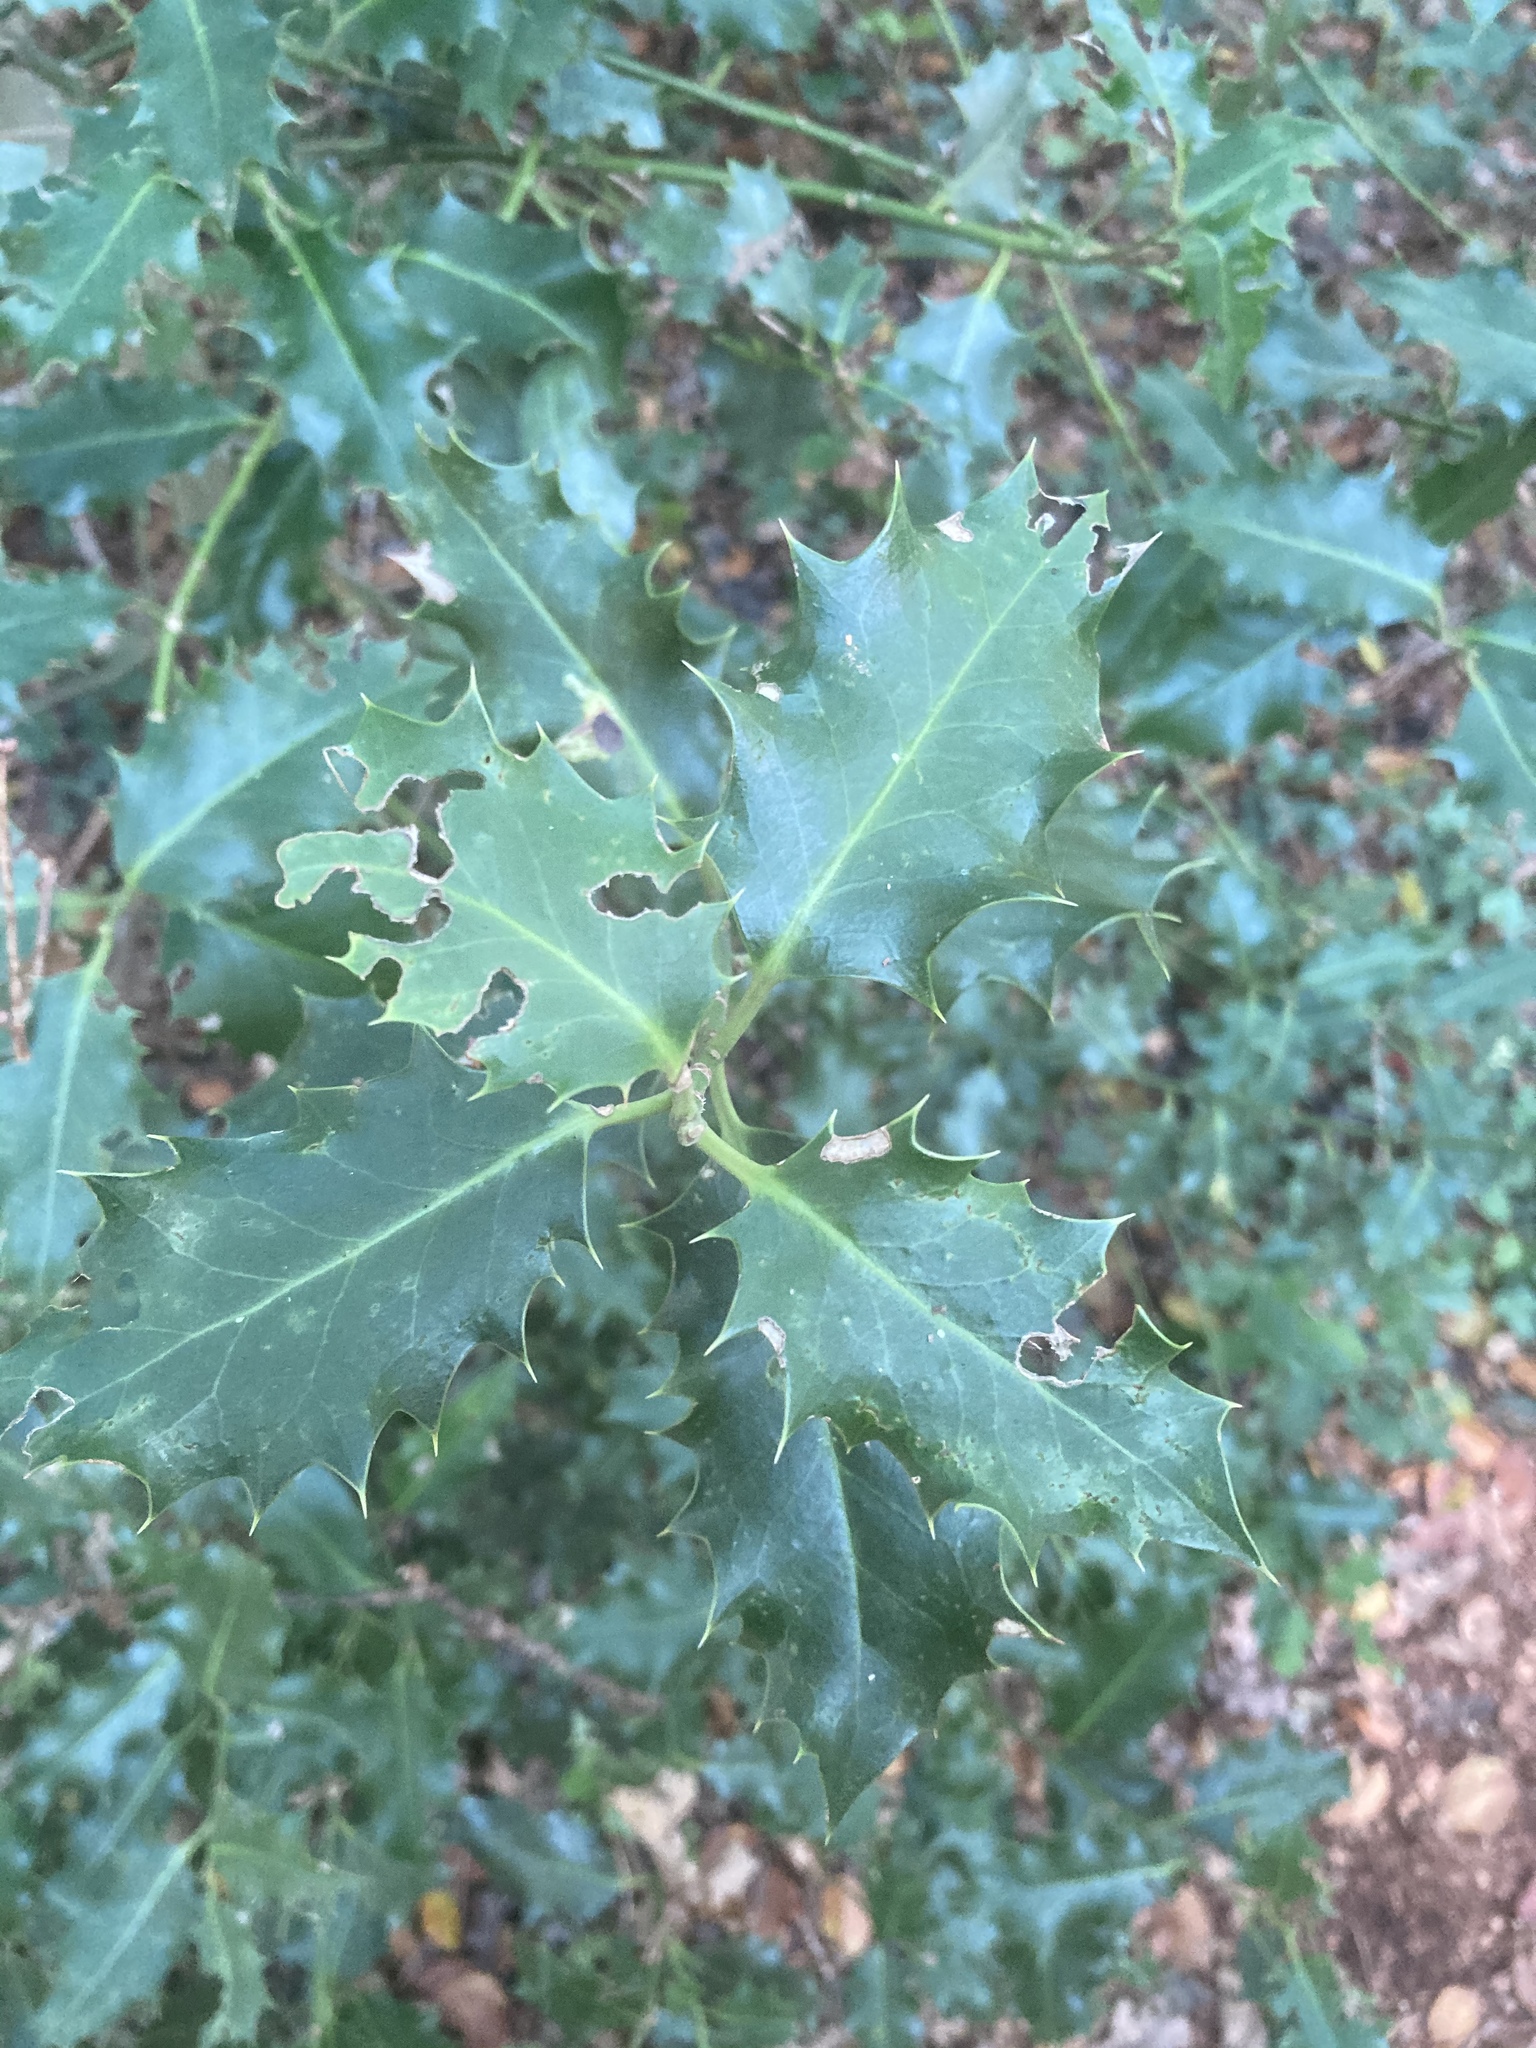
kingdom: Plantae
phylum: Tracheophyta
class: Magnoliopsida
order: Aquifoliales
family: Aquifoliaceae
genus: Ilex
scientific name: Ilex aquifolium
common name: English holly
